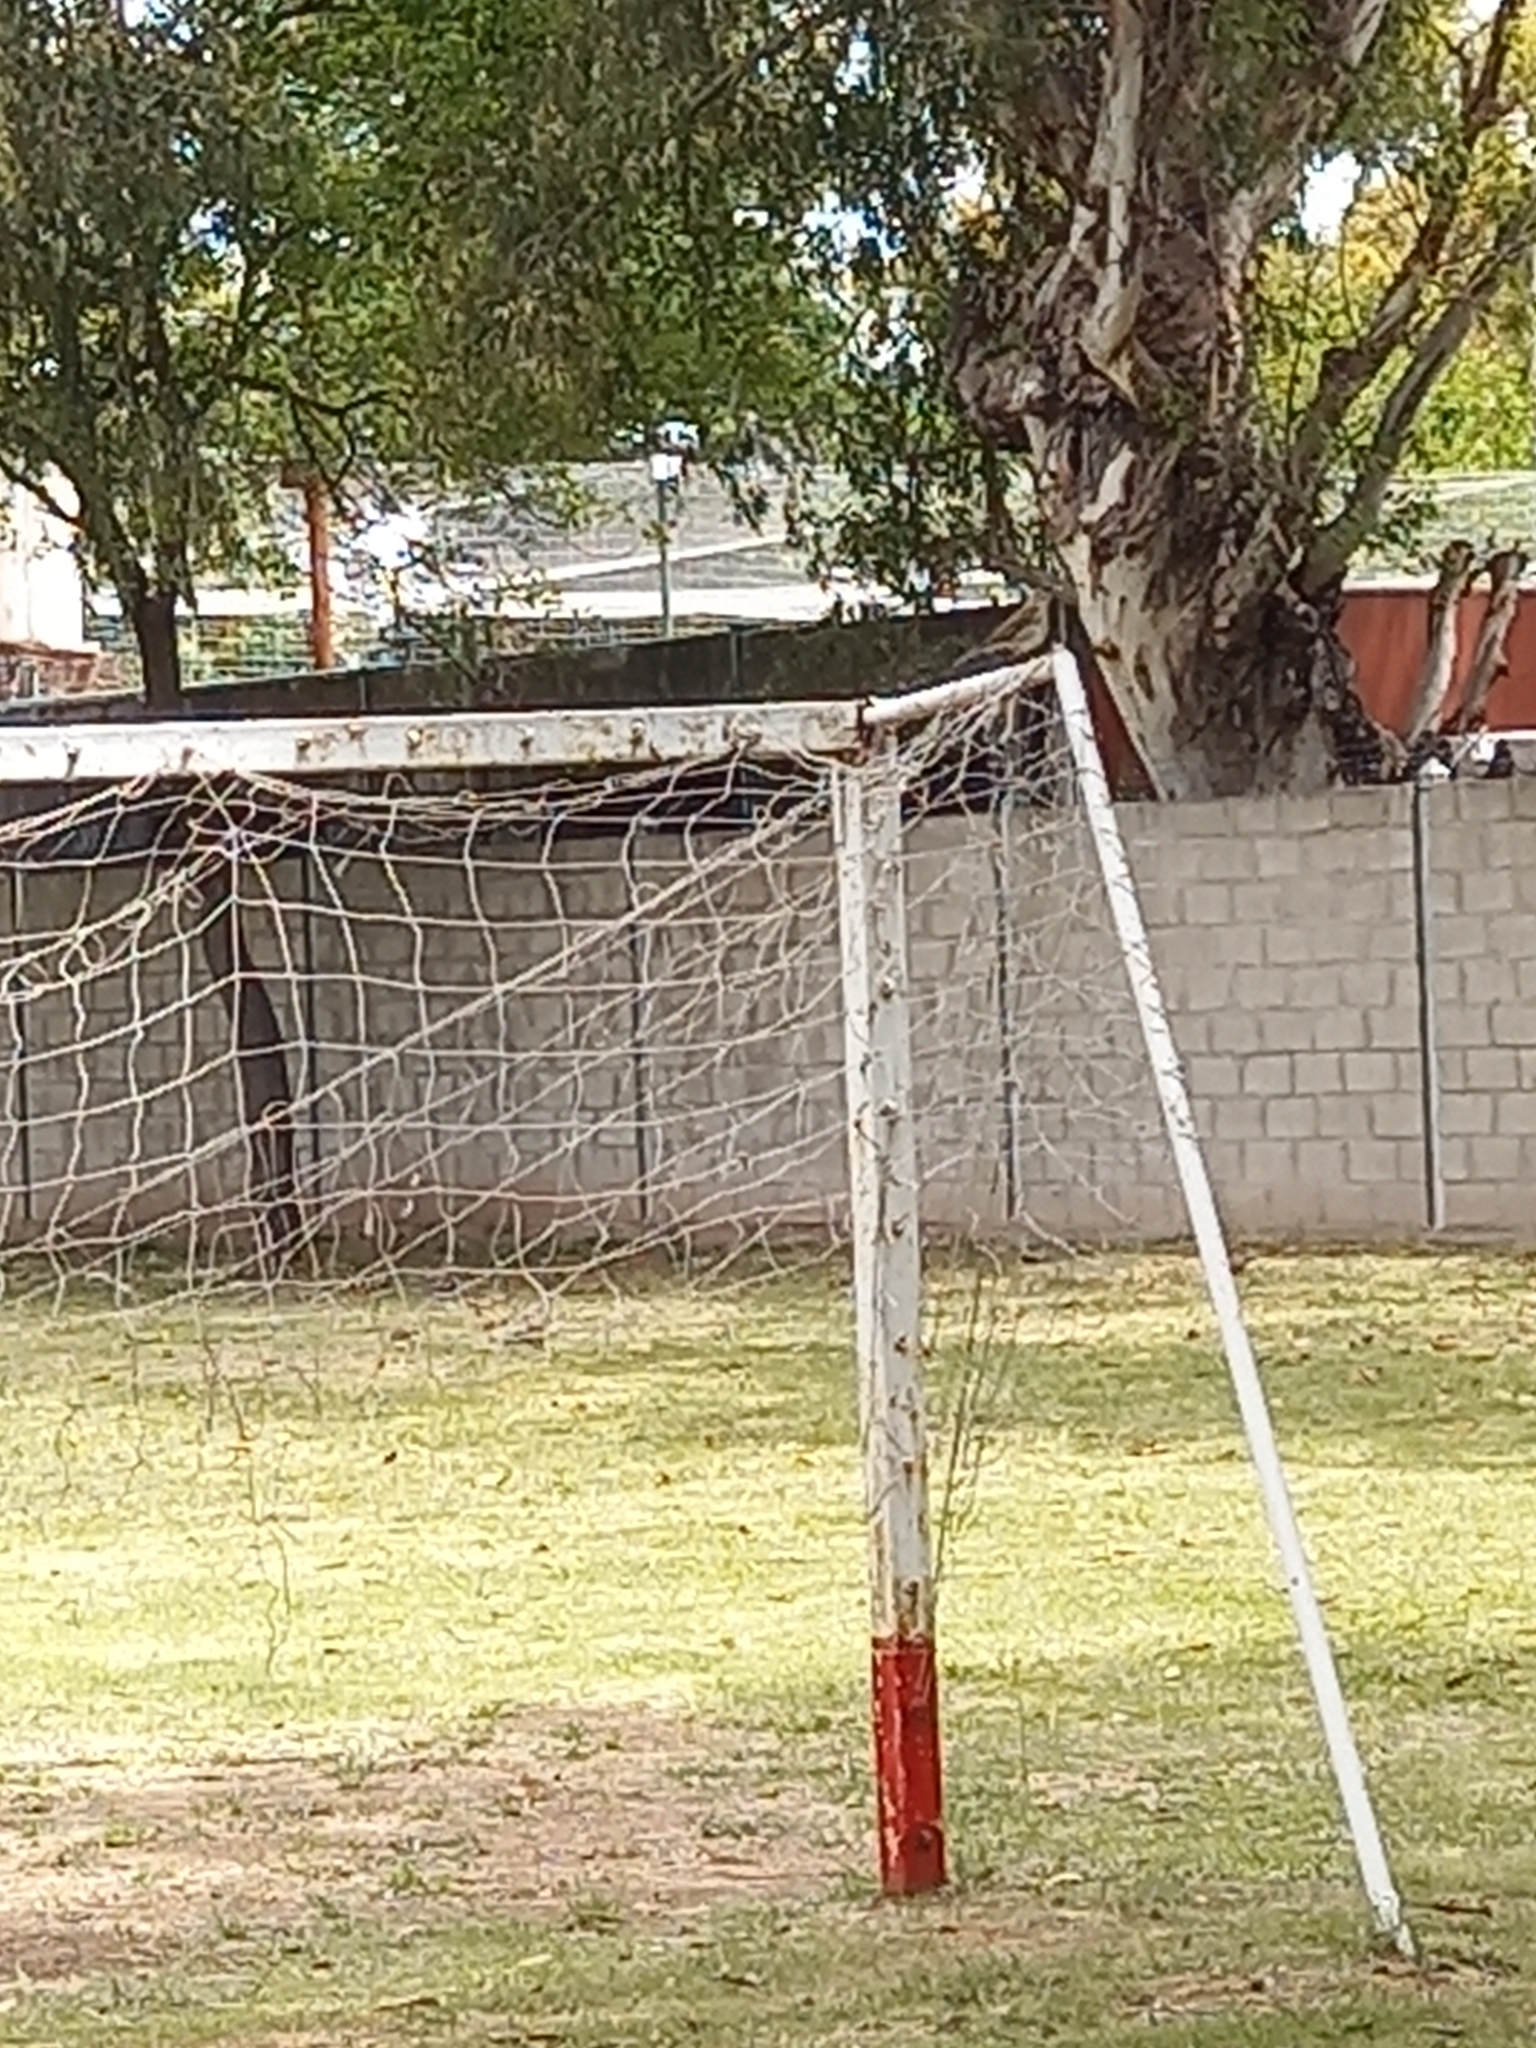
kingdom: Animalia
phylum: Chordata
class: Aves
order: Passeriformes
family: Turdidae
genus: Turdus
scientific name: Turdus amaurochalinus
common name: Creamy-bellied thrush
